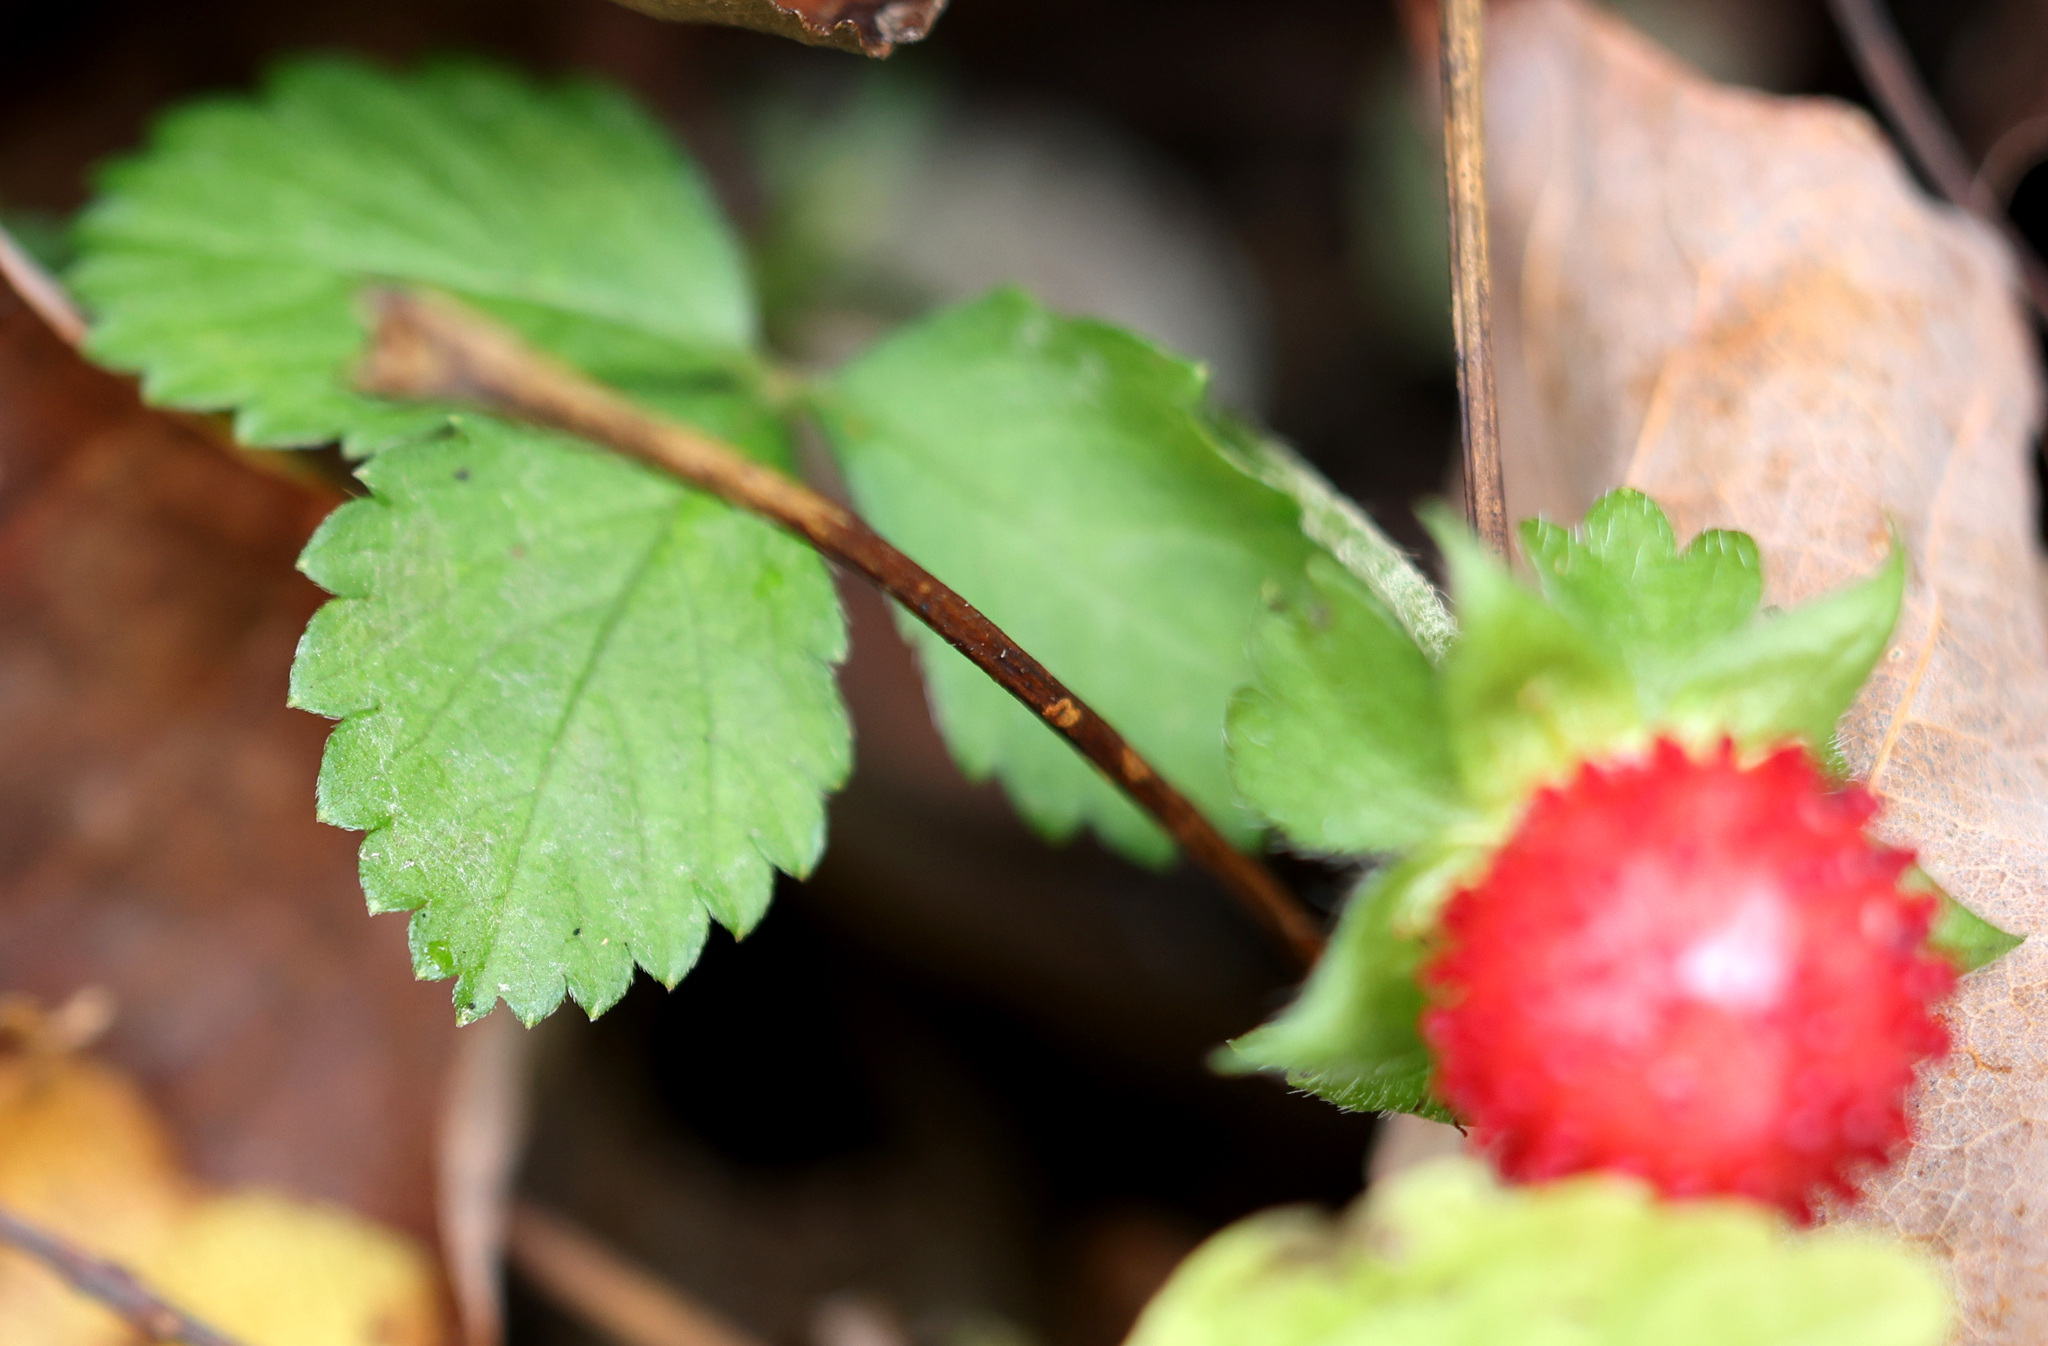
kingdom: Plantae
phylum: Tracheophyta
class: Magnoliopsida
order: Rosales
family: Rosaceae
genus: Potentilla
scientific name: Potentilla indica
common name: Yellow-flowered strawberry
